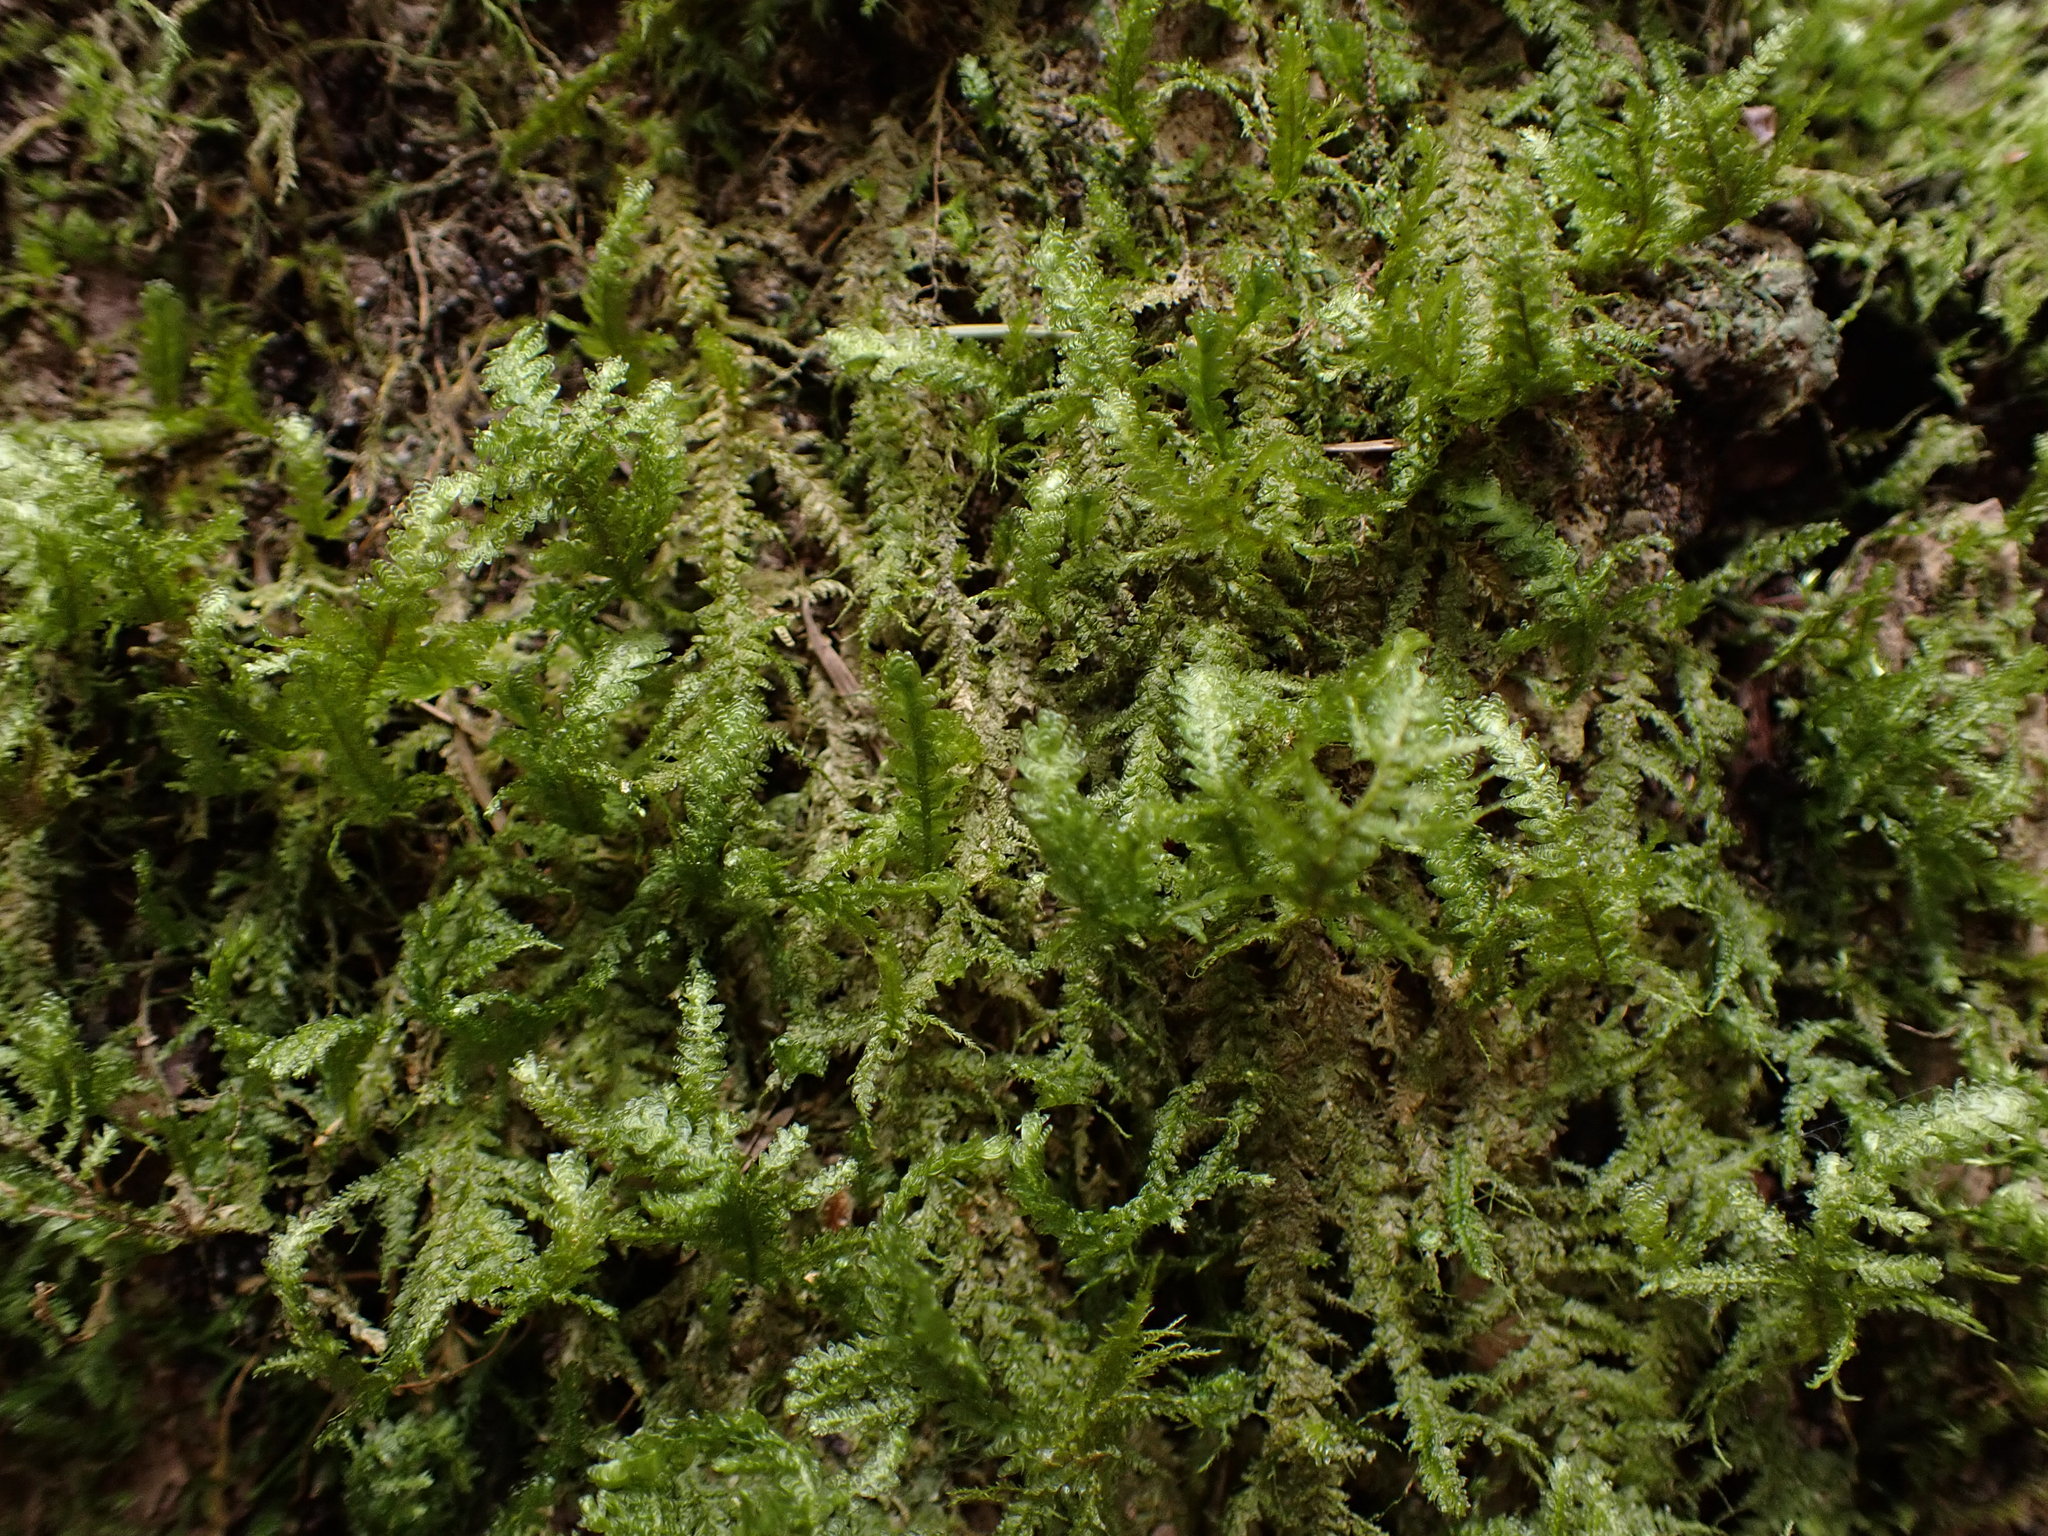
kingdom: Plantae
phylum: Bryophyta
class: Bryopsida
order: Hypnales
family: Neckeraceae
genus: Metaneckera
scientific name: Metaneckera menziesii
